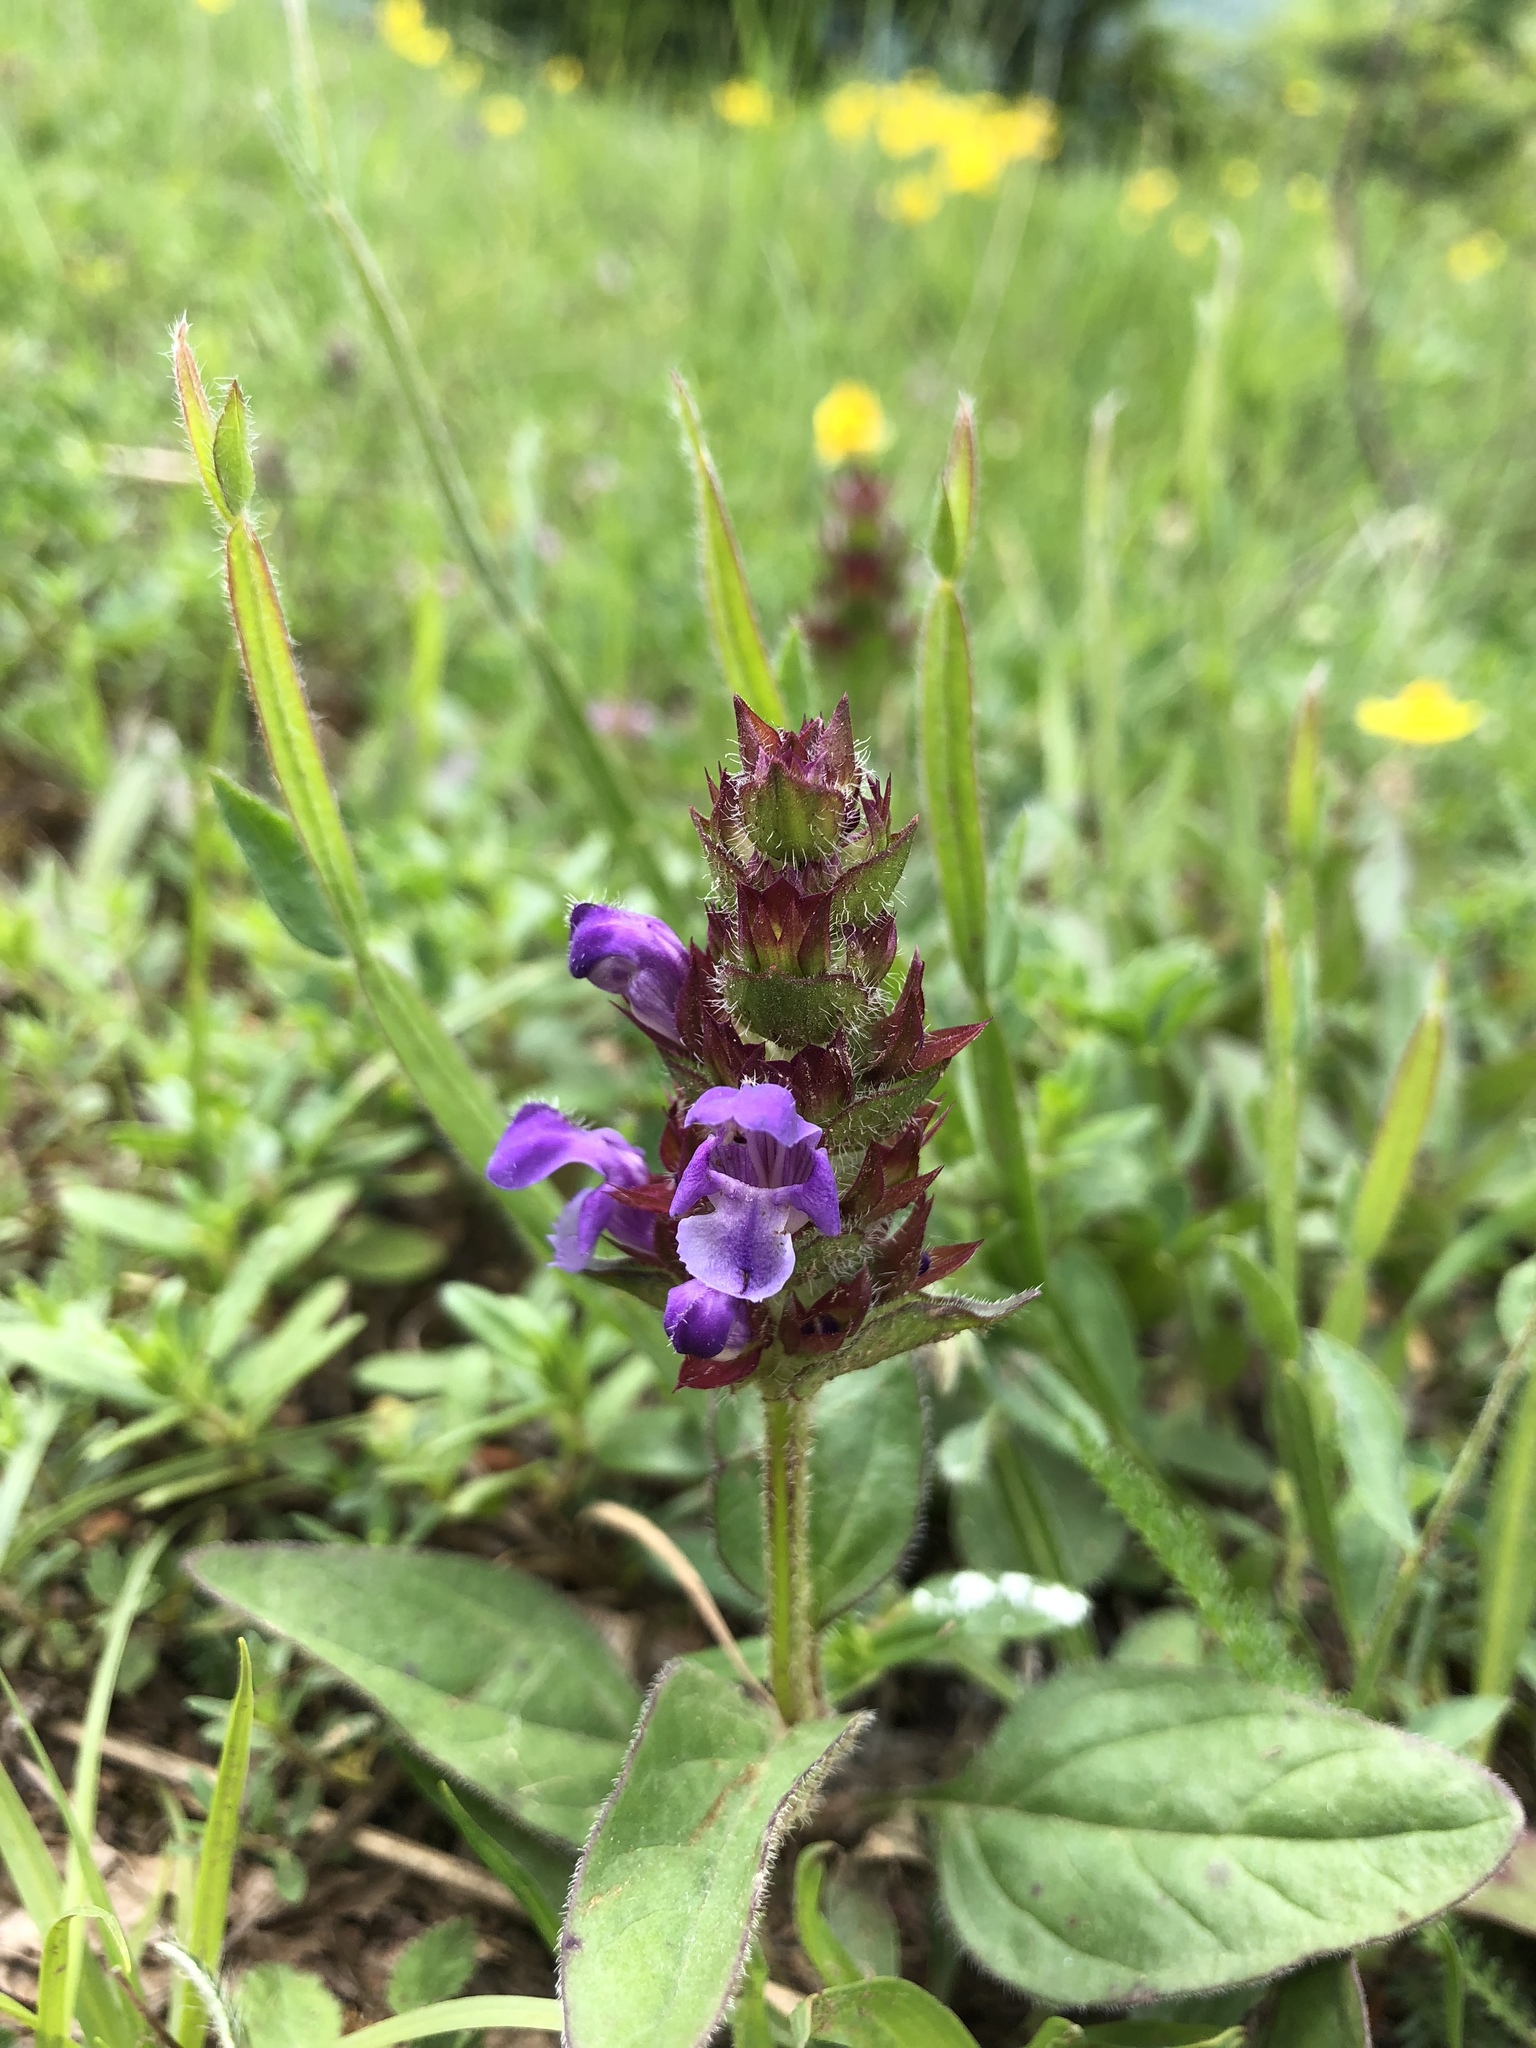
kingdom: Plantae
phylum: Tracheophyta
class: Magnoliopsida
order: Lamiales
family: Lamiaceae
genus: Prunella
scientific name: Prunella vulgaris
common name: Heal-all
